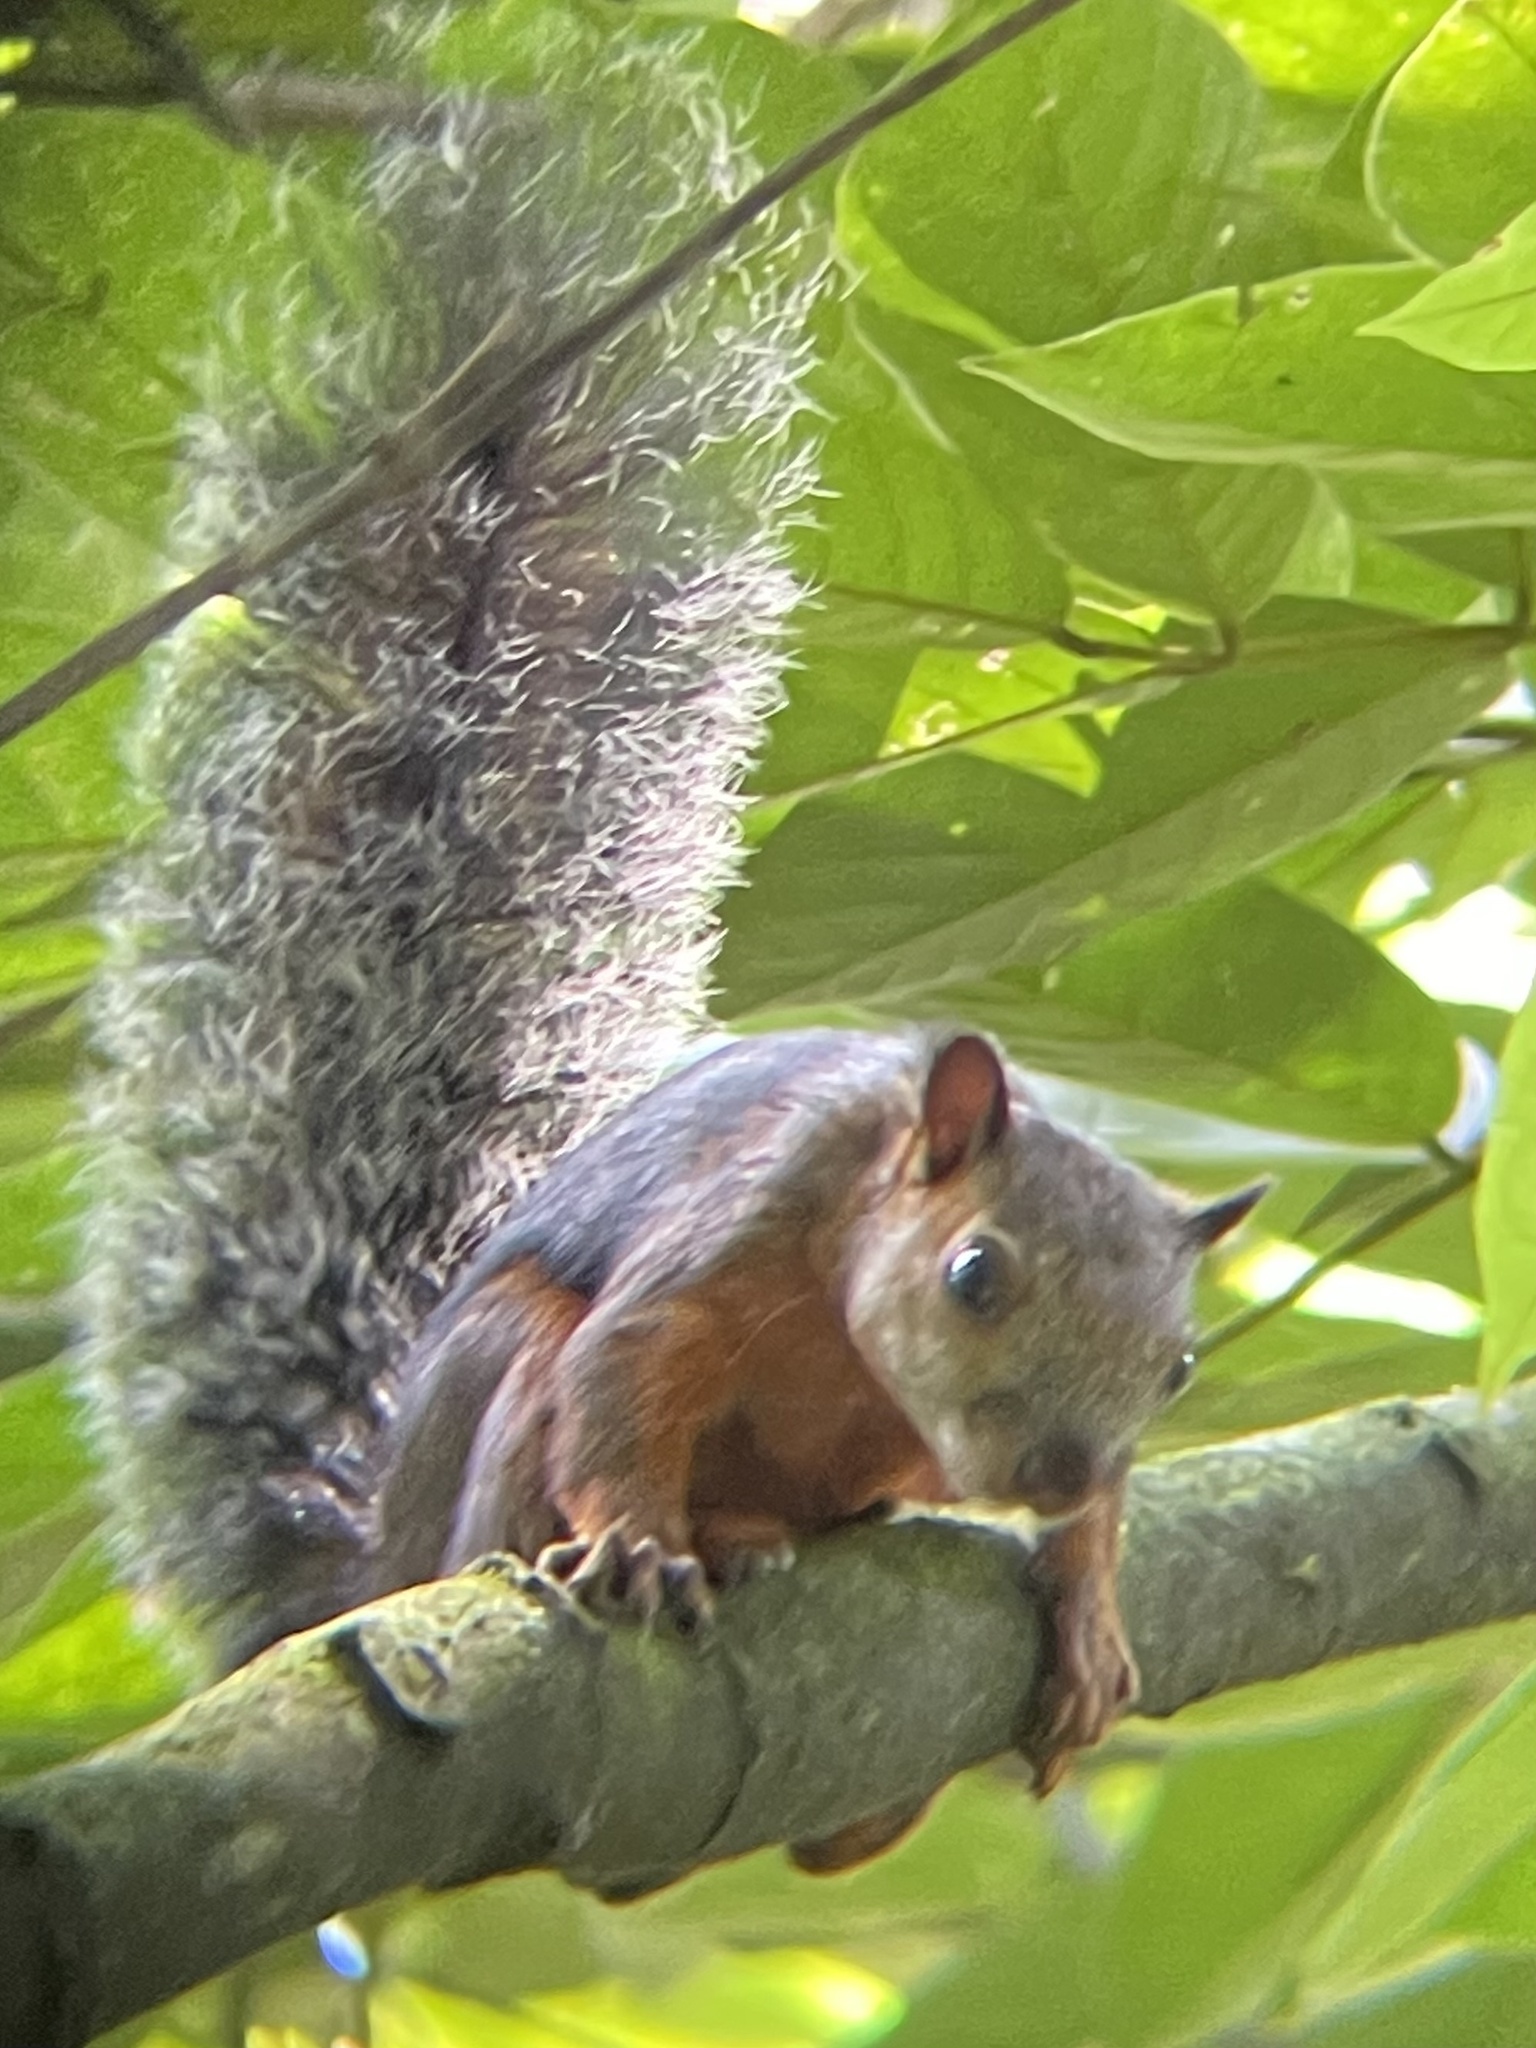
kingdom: Animalia
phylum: Chordata
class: Mammalia
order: Rodentia
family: Sciuridae
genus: Sciurus
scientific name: Sciurus variegatoides
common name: Variegated squirrel
